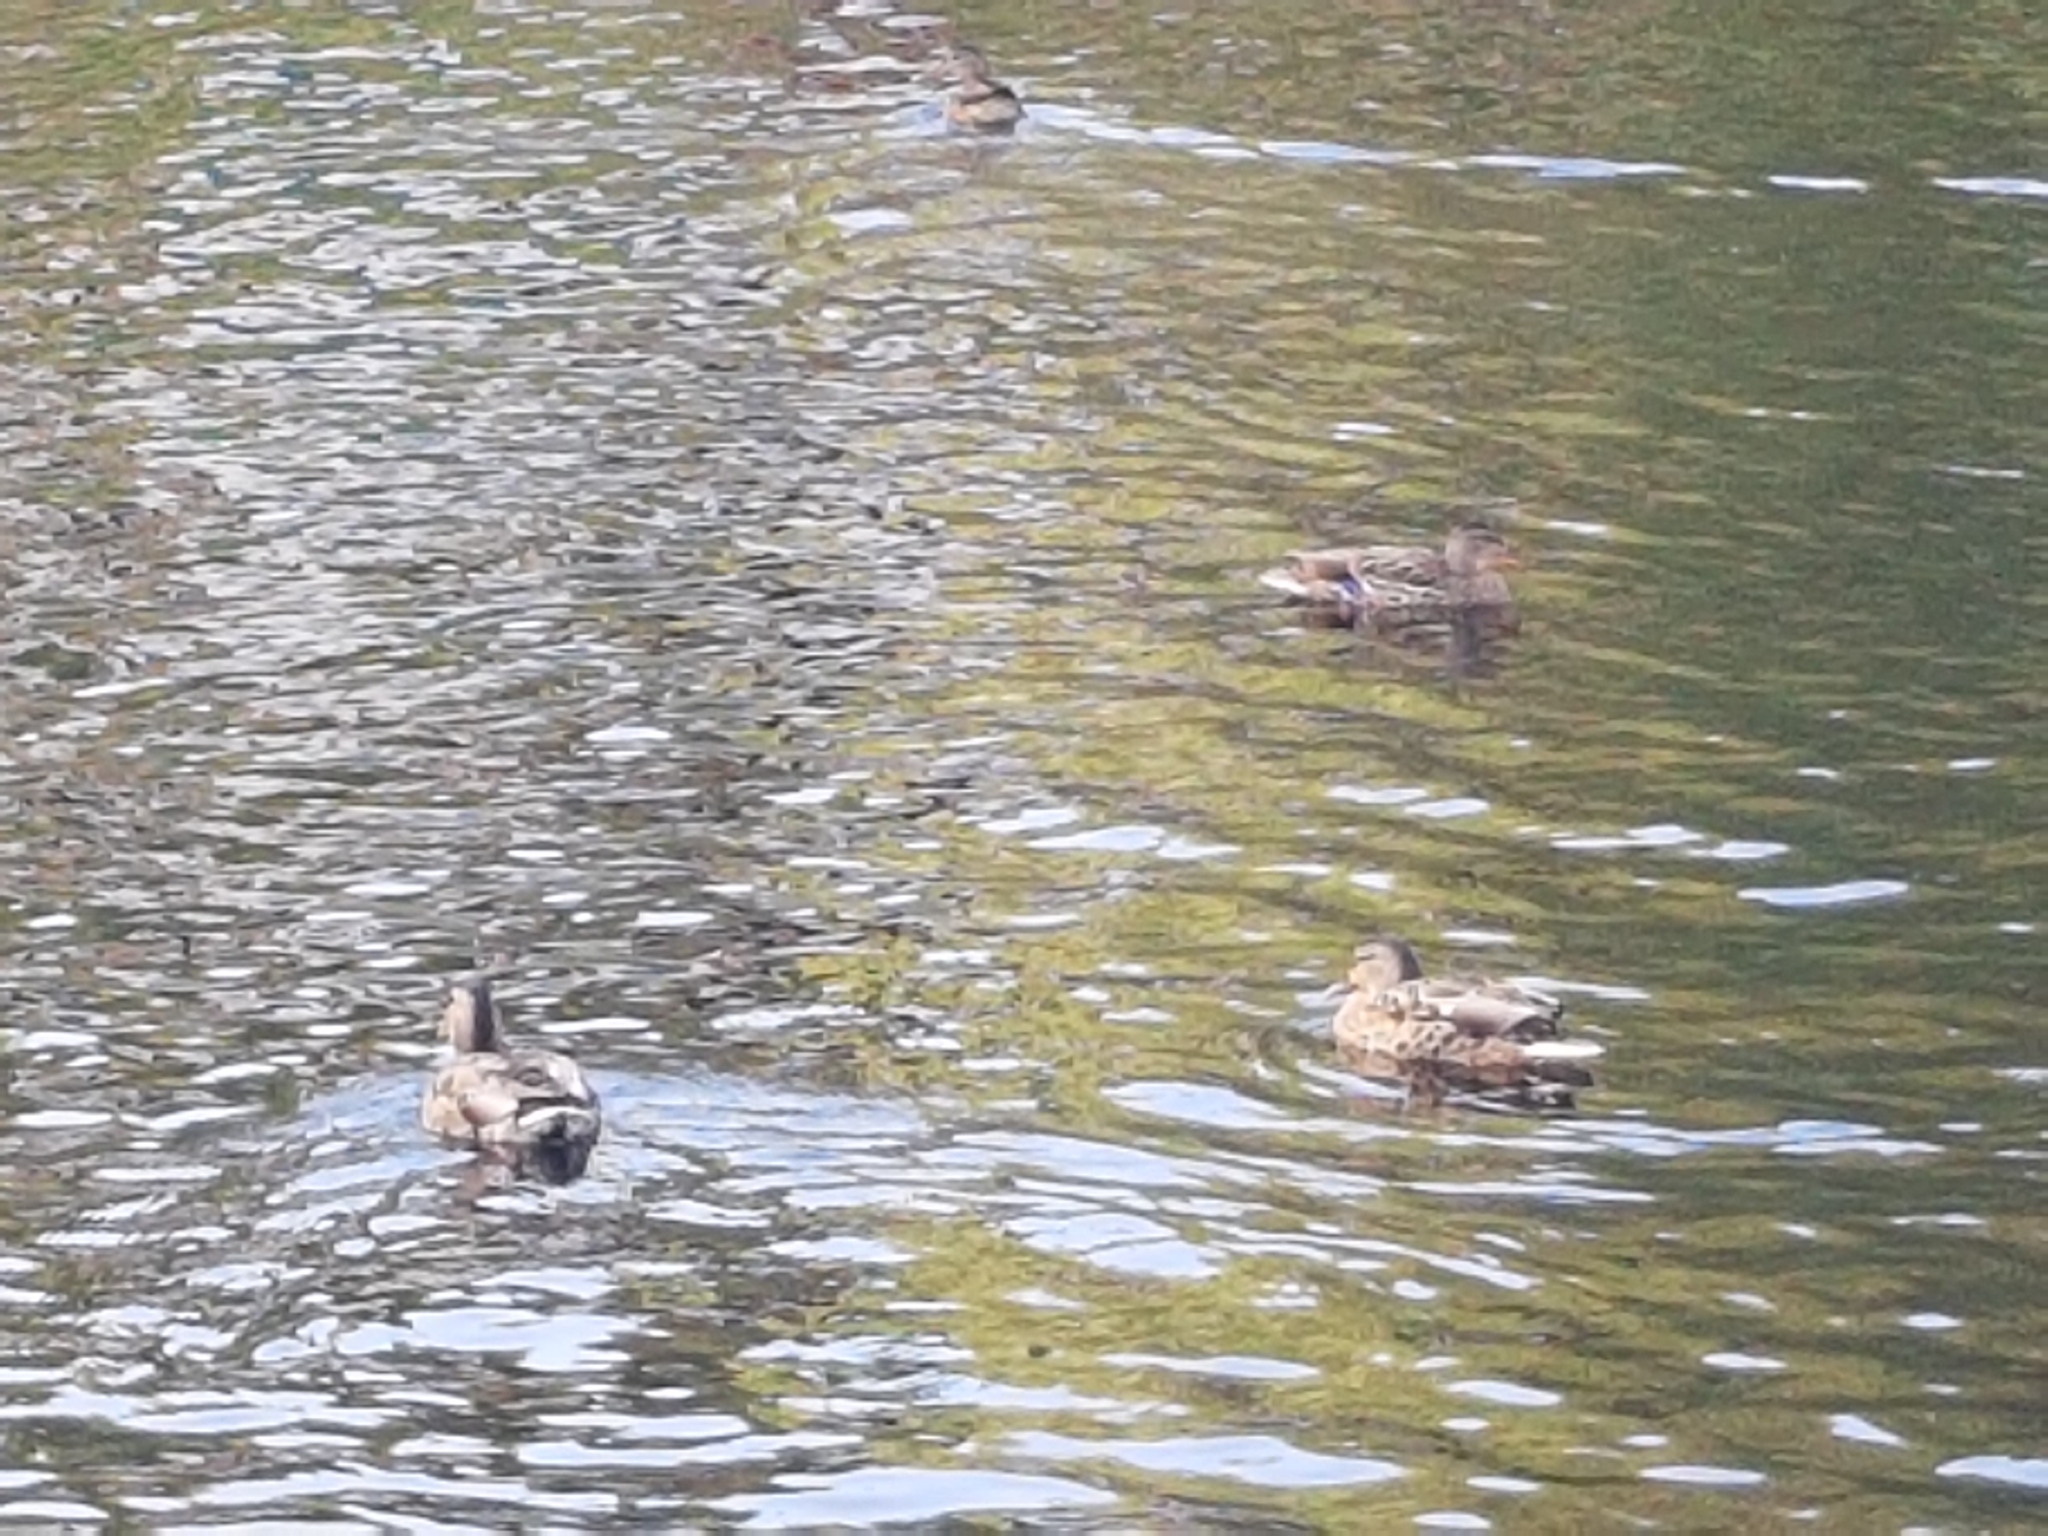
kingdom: Animalia
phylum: Chordata
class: Aves
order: Anseriformes
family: Anatidae
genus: Anas
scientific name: Anas platyrhynchos
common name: Mallard
